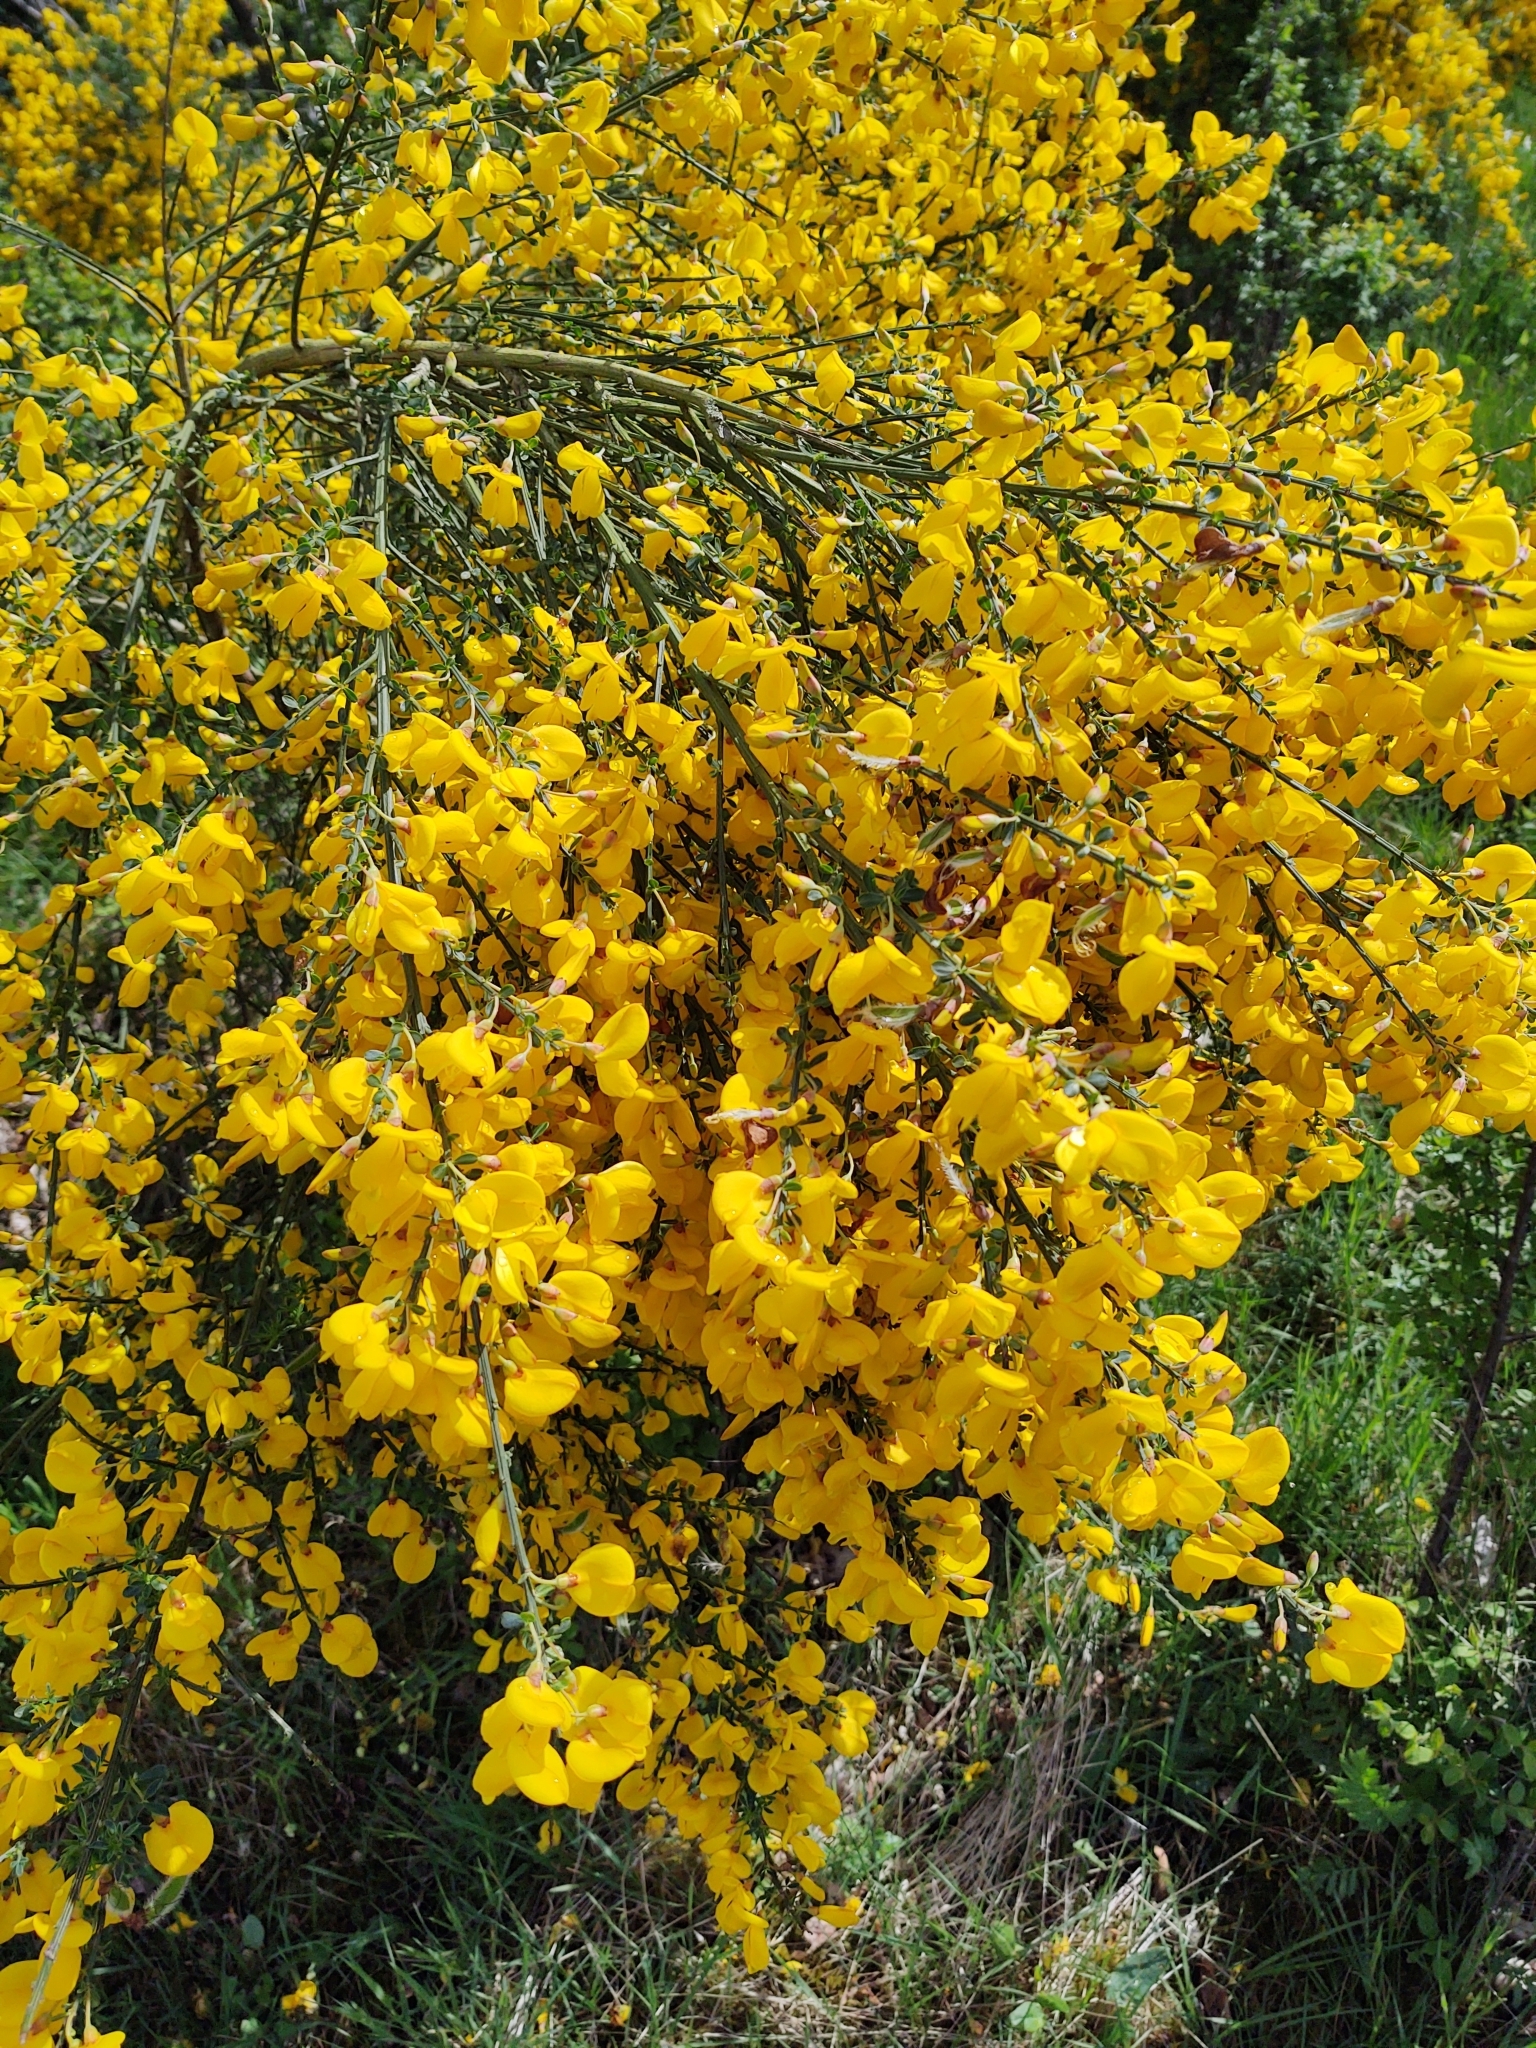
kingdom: Plantae
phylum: Tracheophyta
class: Magnoliopsida
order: Fabales
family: Fabaceae
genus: Cytisus
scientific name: Cytisus scoparius
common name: Scotch broom
